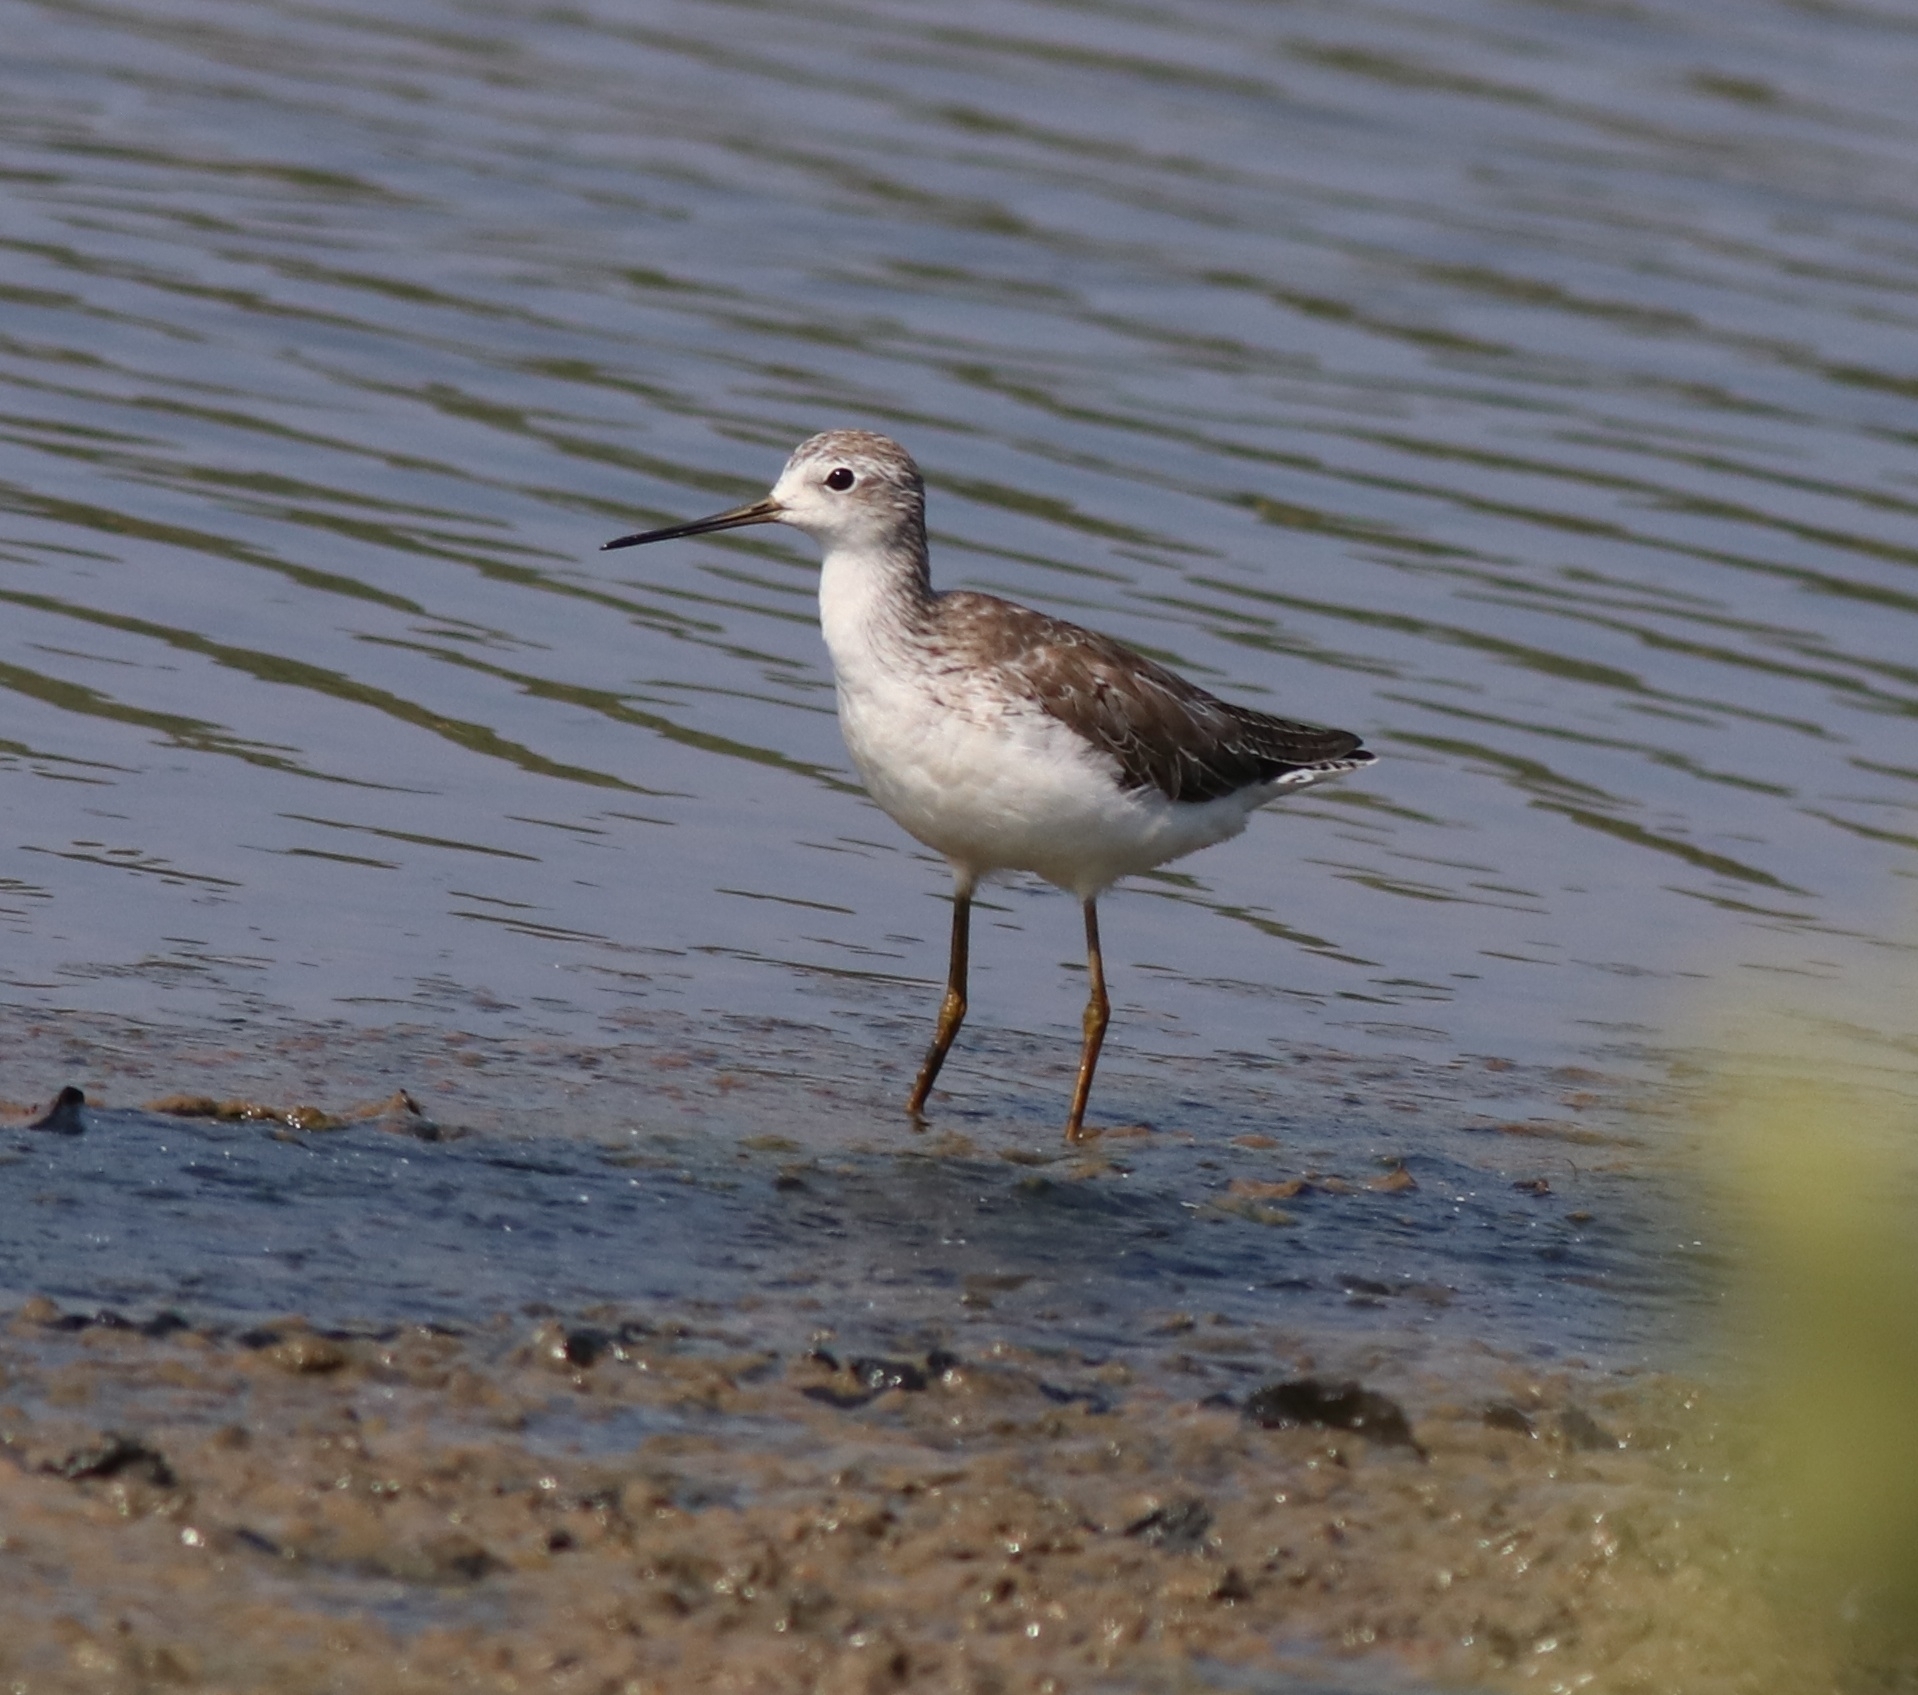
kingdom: Animalia
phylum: Chordata
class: Aves
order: Charadriiformes
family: Scolopacidae
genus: Tringa
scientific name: Tringa stagnatilis
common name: Marsh sandpiper
